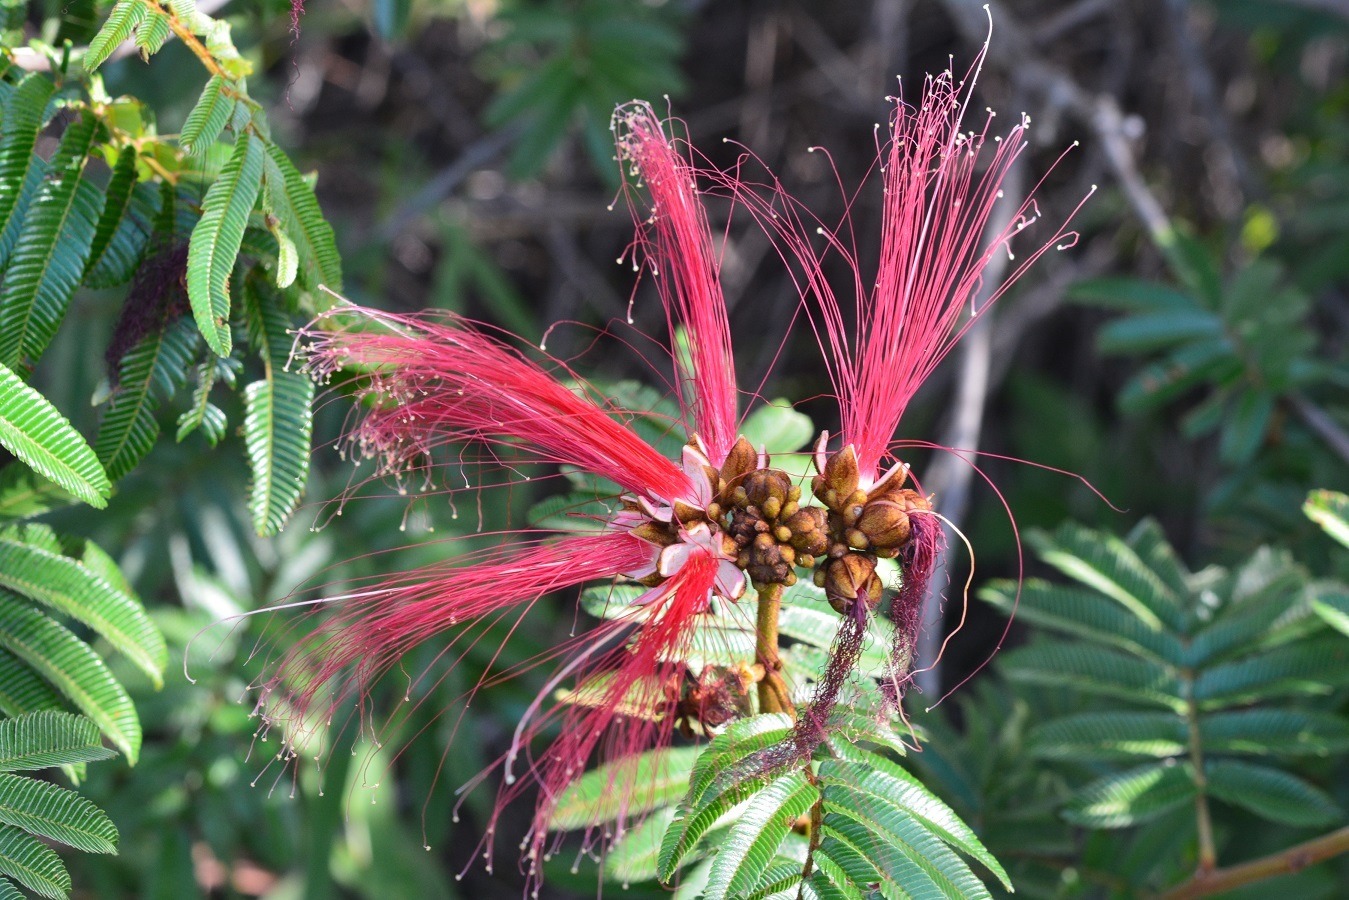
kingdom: Plantae
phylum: Tracheophyta
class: Magnoliopsida
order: Fabales
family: Fabaceae
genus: Calliandra
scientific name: Calliandra houstoniana
